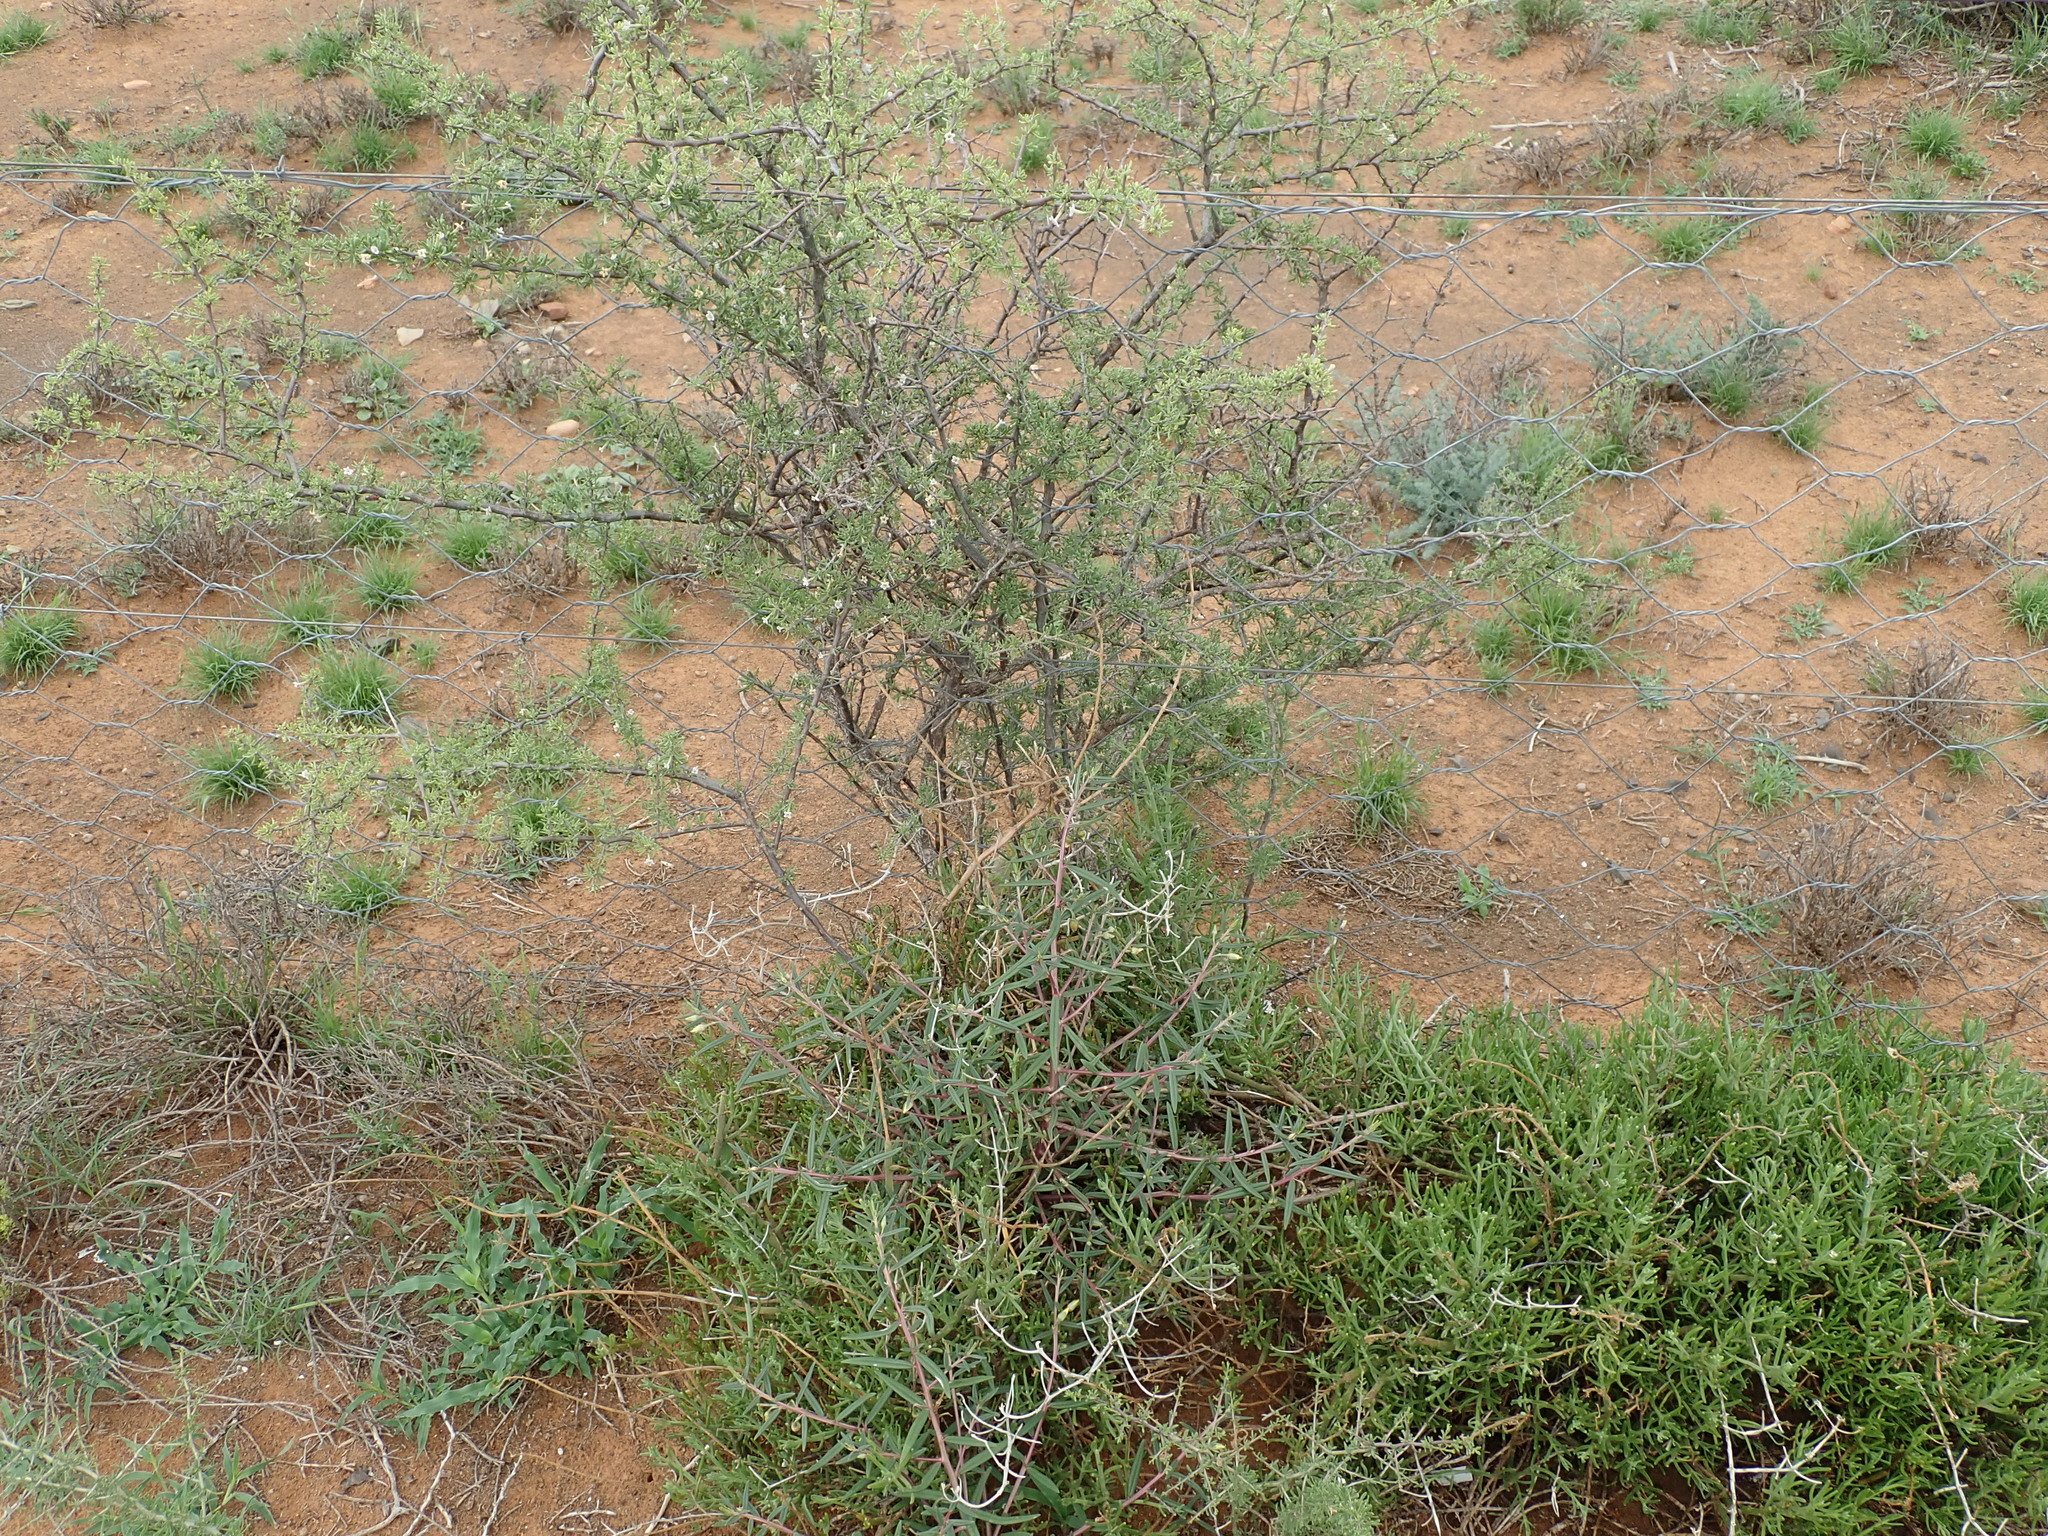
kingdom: Plantae
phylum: Tracheophyta
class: Magnoliopsida
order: Solanales
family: Solanaceae
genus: Lycium
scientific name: Lycium horridum
